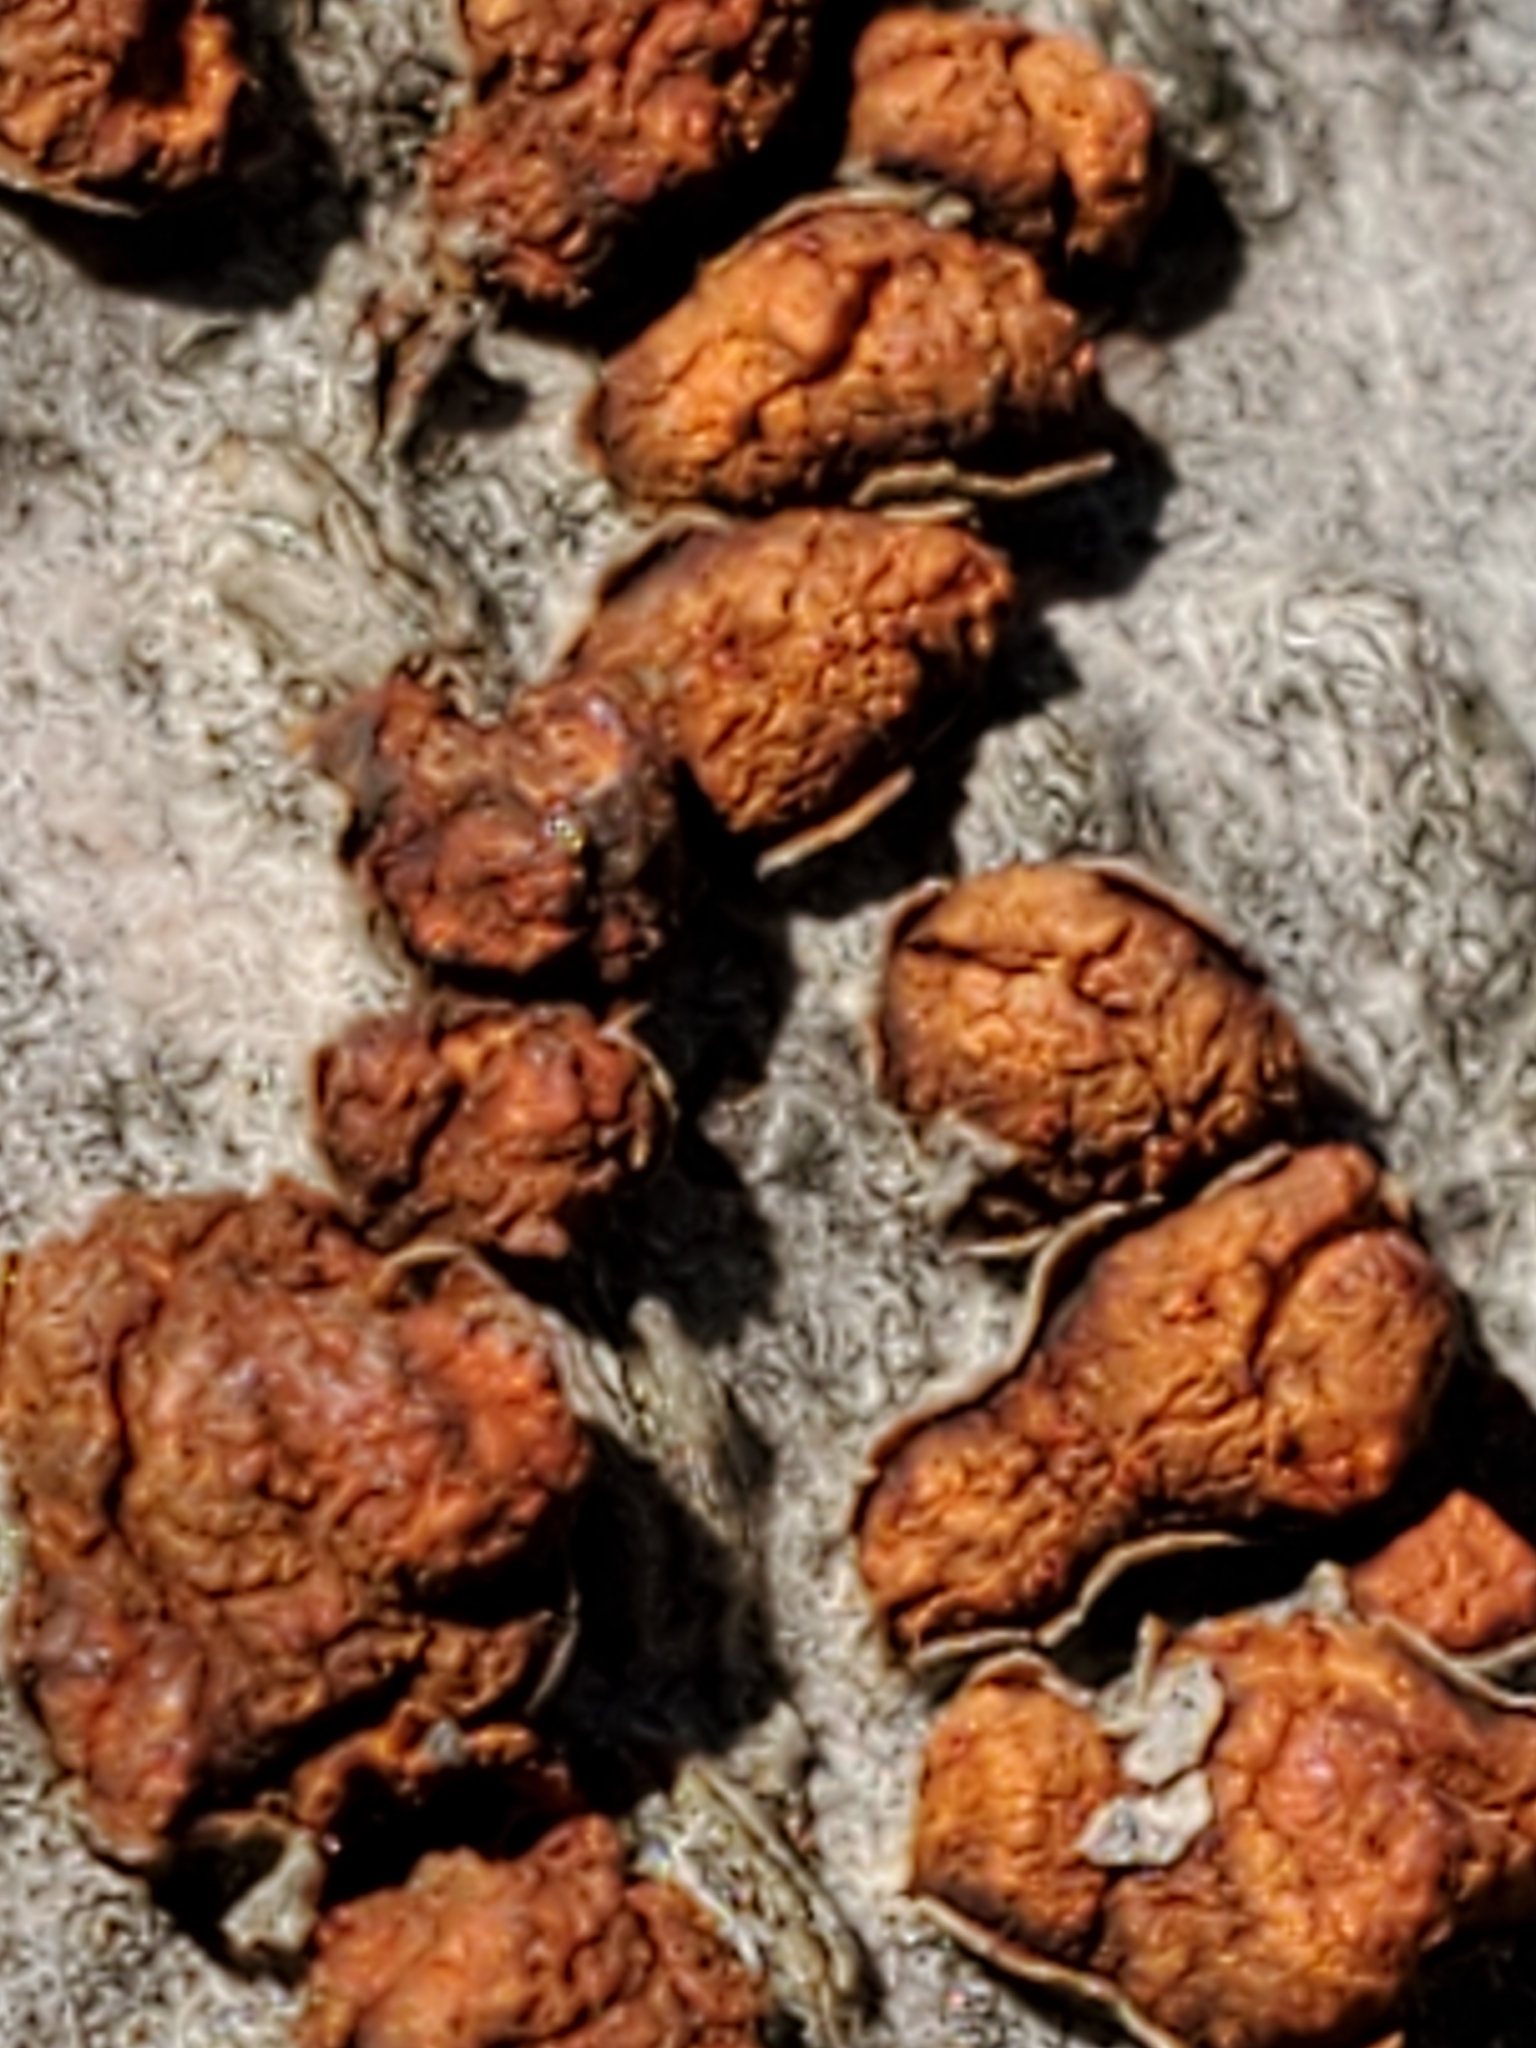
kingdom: Fungi
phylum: Ascomycota
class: Sordariomycetes
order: Diaporthales
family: Cryphonectriaceae
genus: Amphilogia
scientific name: Amphilogia gyrosa
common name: Orange hobnail canker
